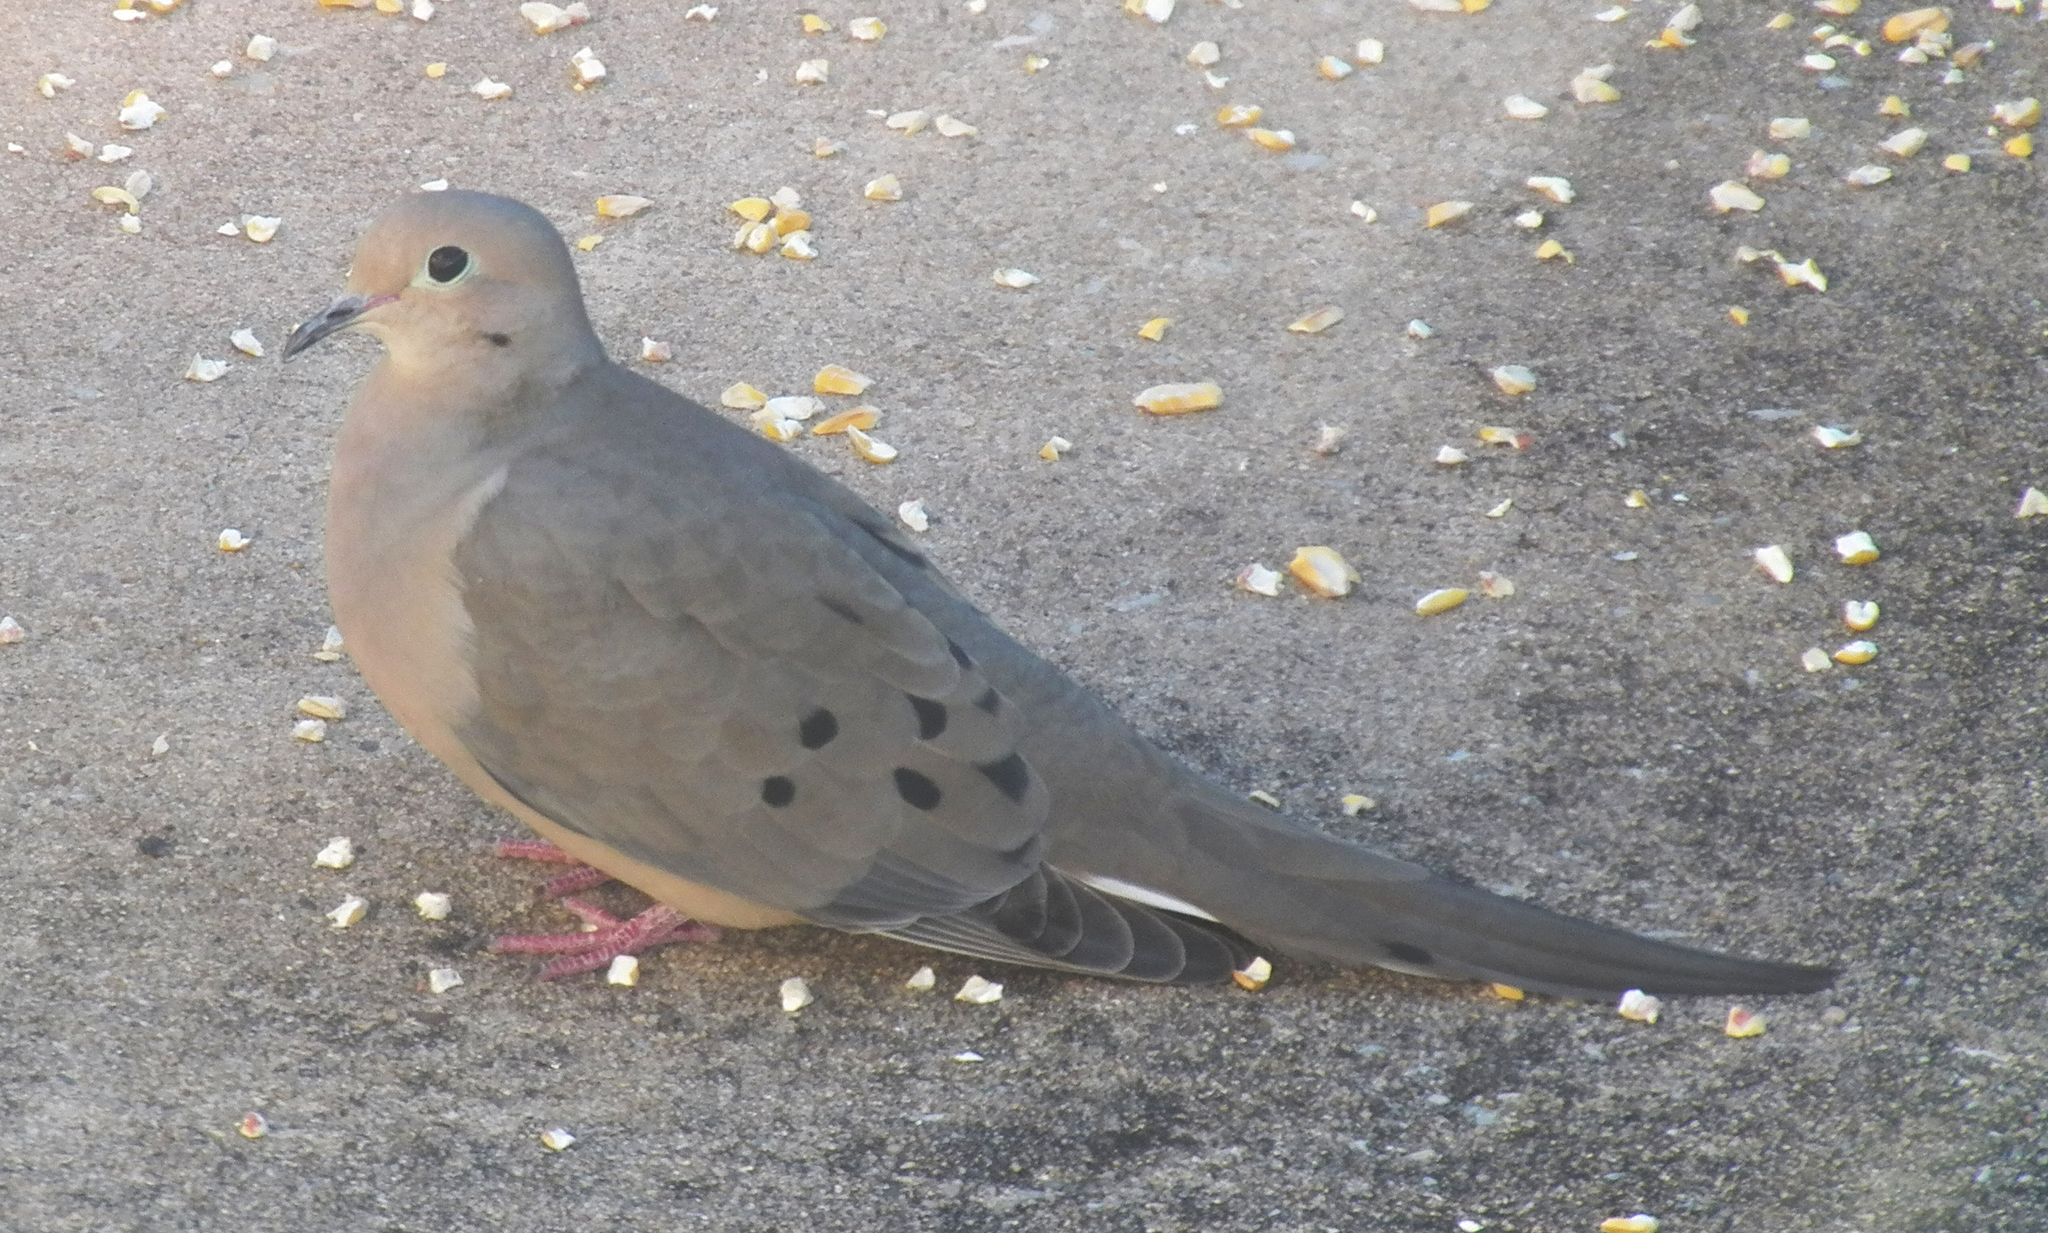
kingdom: Animalia
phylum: Chordata
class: Aves
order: Columbiformes
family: Columbidae
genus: Zenaida
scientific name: Zenaida macroura
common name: Mourning dove
